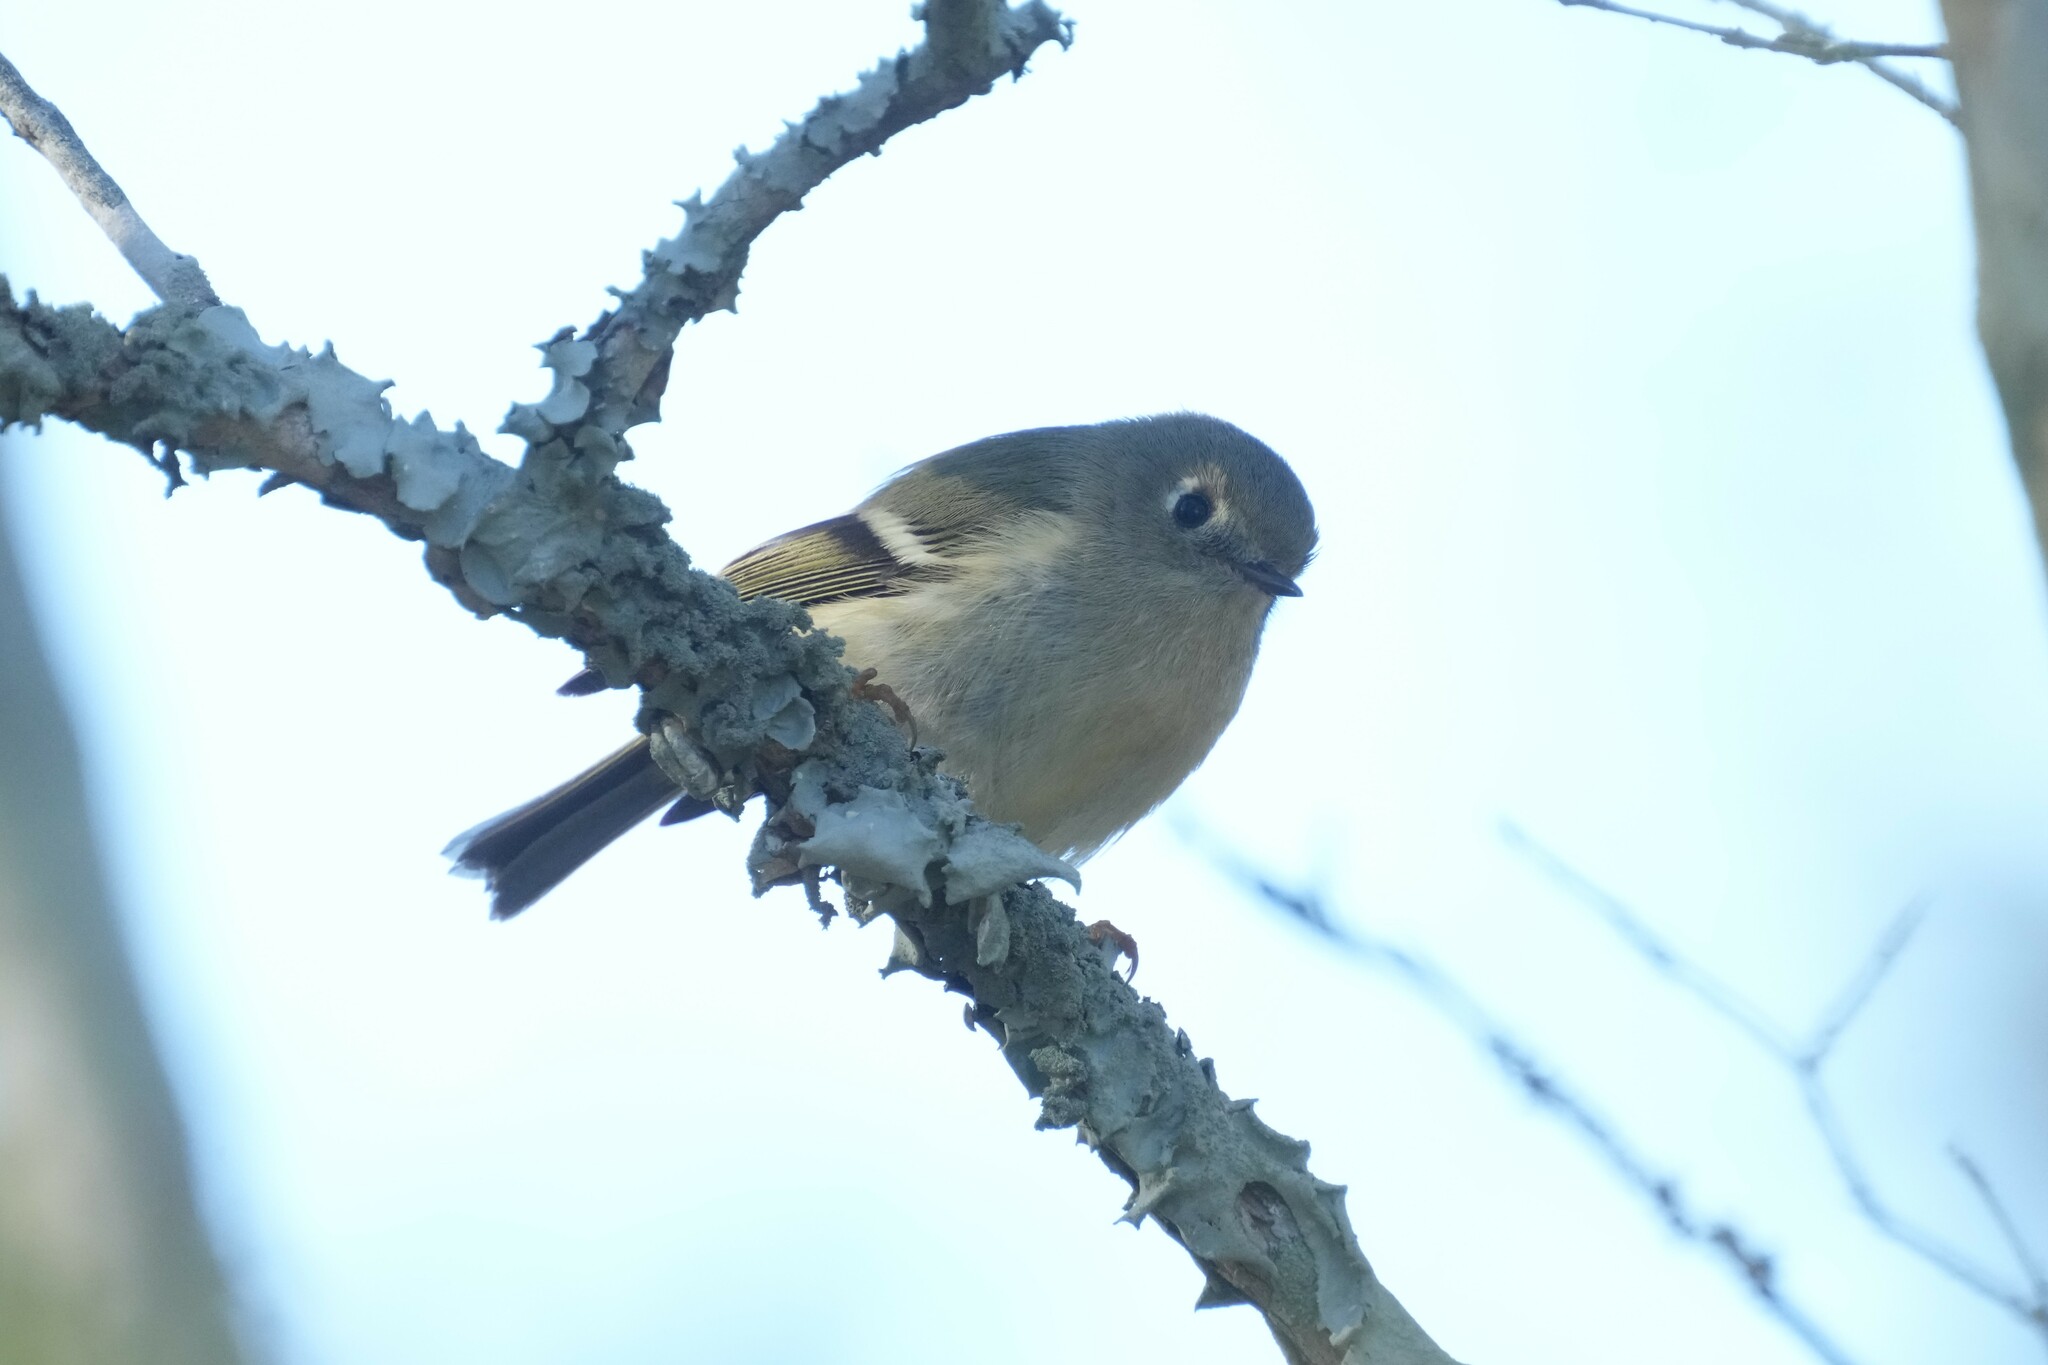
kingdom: Animalia
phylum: Chordata
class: Aves
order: Passeriformes
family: Regulidae
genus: Regulus
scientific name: Regulus calendula
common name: Ruby-crowned kinglet
